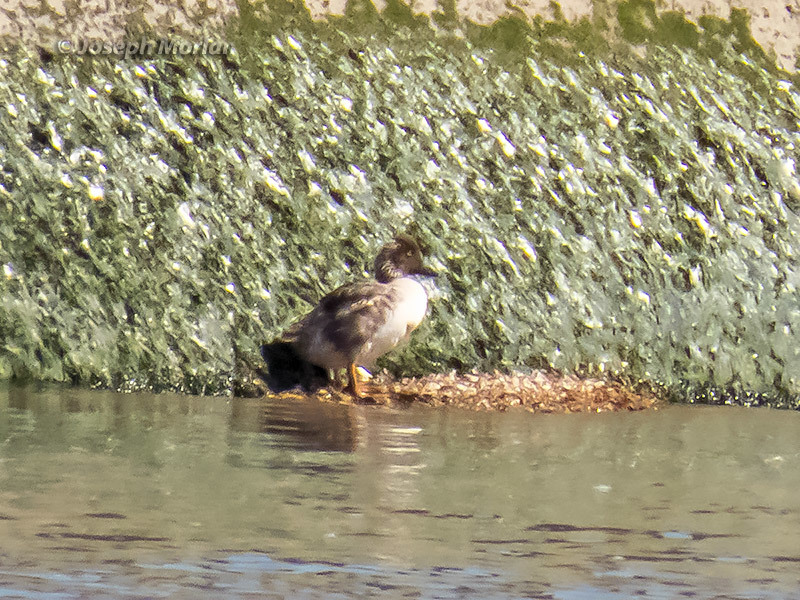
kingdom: Animalia
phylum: Chordata
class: Aves
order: Anseriformes
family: Anatidae
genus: Bucephala
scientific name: Bucephala clangula
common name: Common goldeneye
